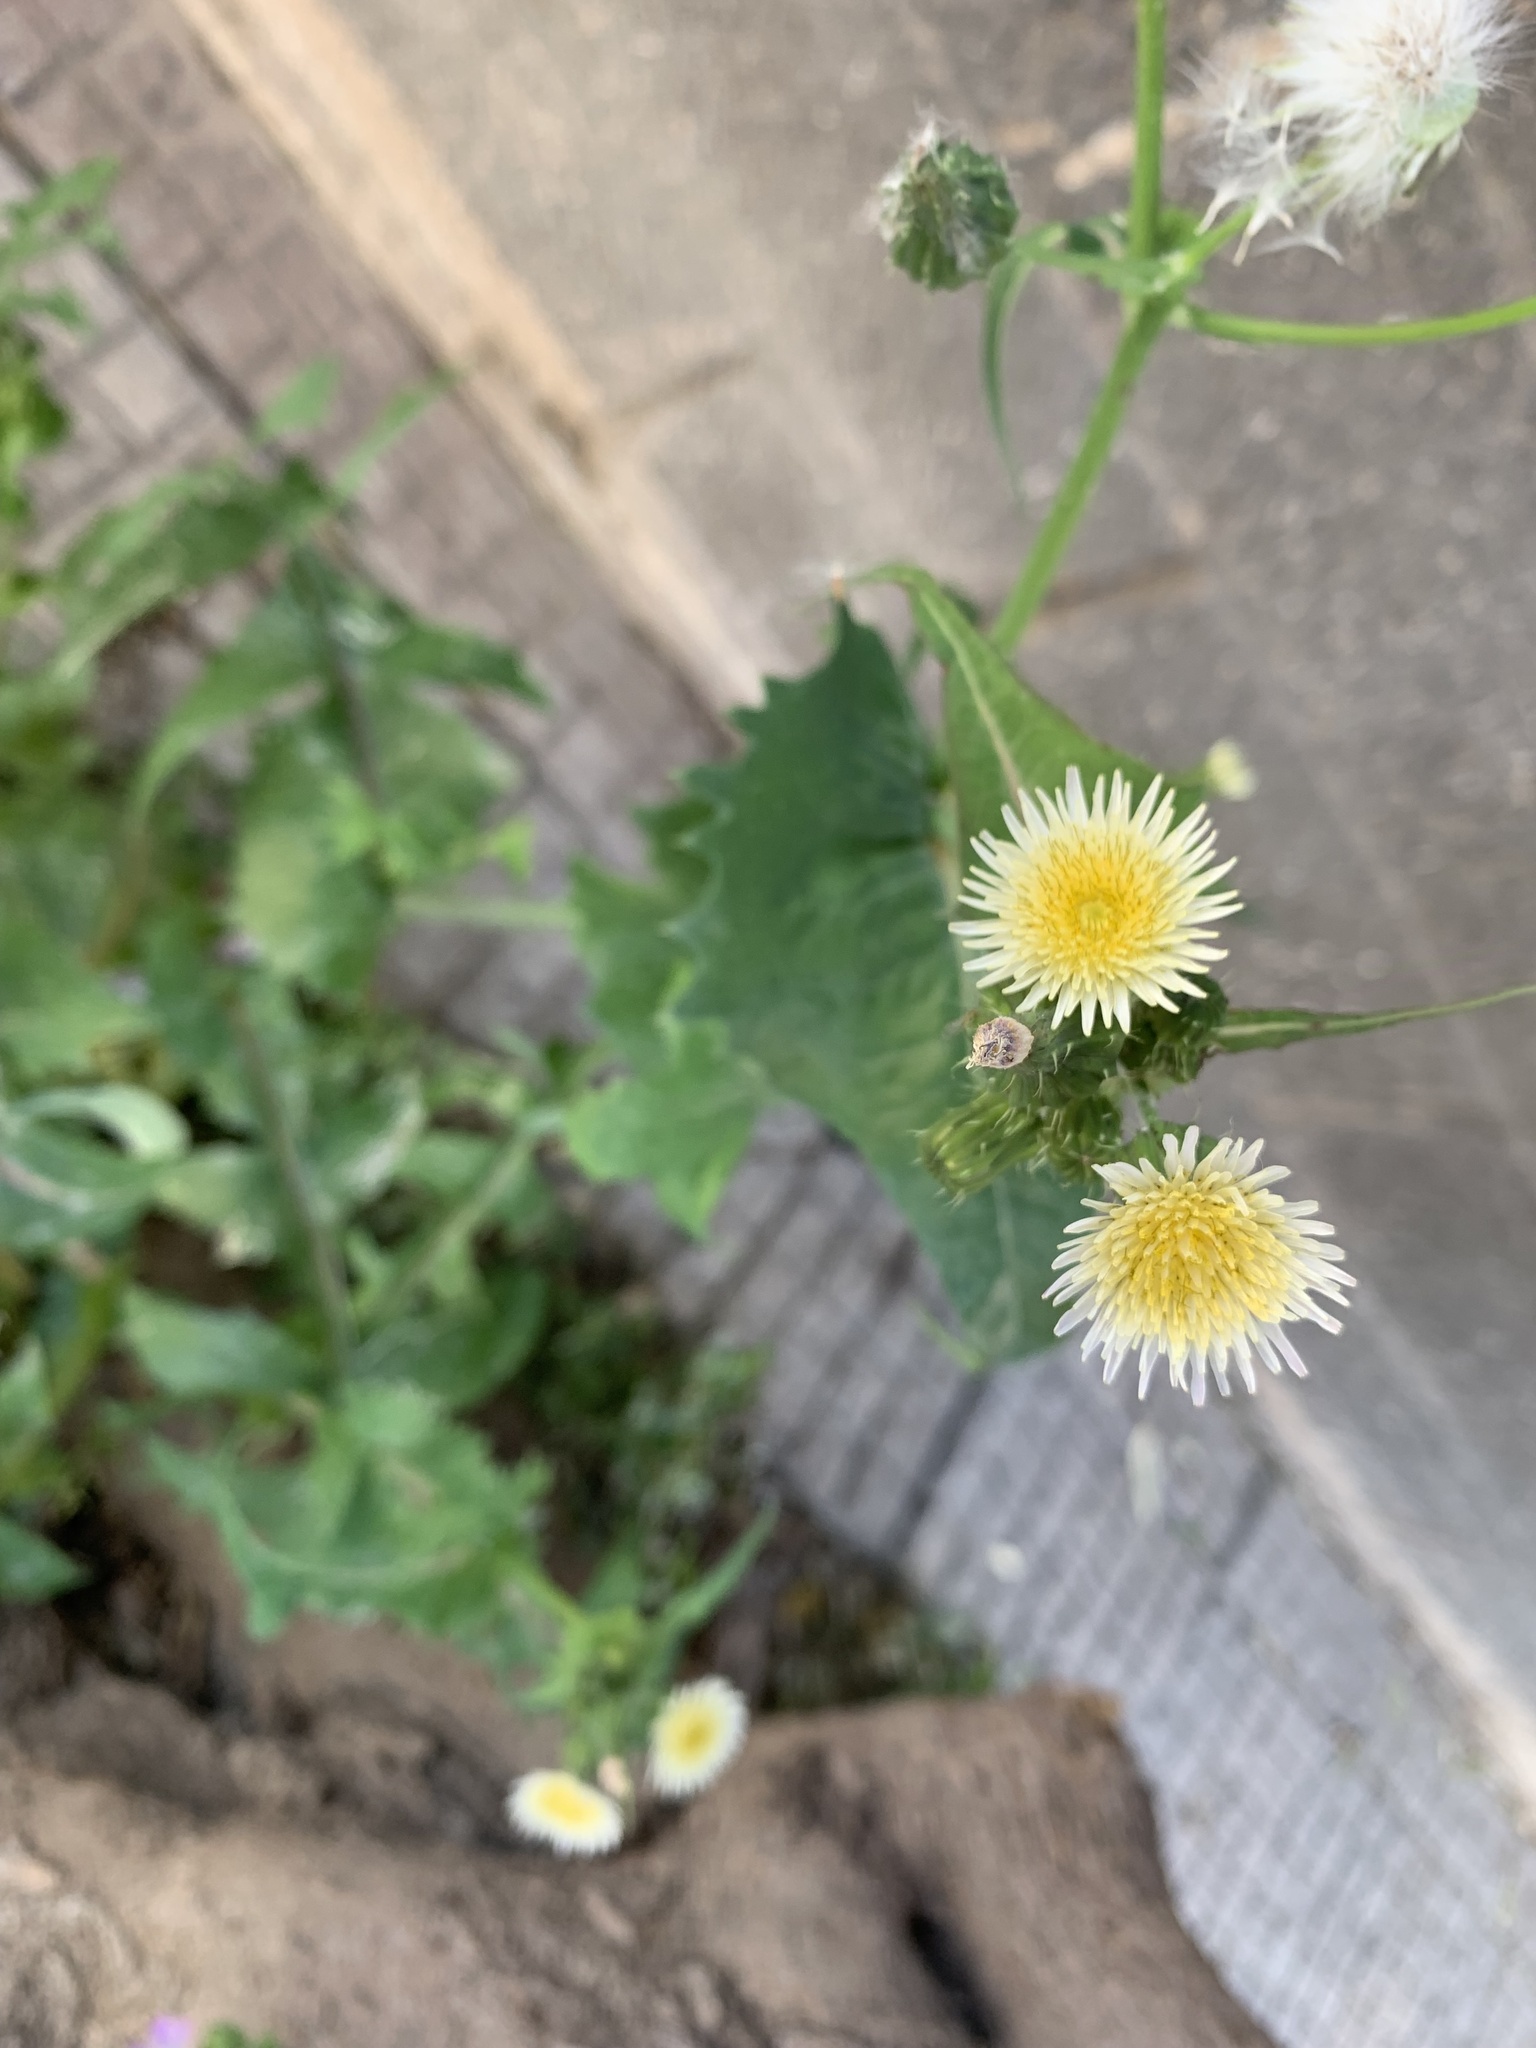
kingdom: Plantae
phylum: Tracheophyta
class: Magnoliopsida
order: Asterales
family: Asteraceae
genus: Sonchus
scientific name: Sonchus oleraceus
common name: Common sowthistle
